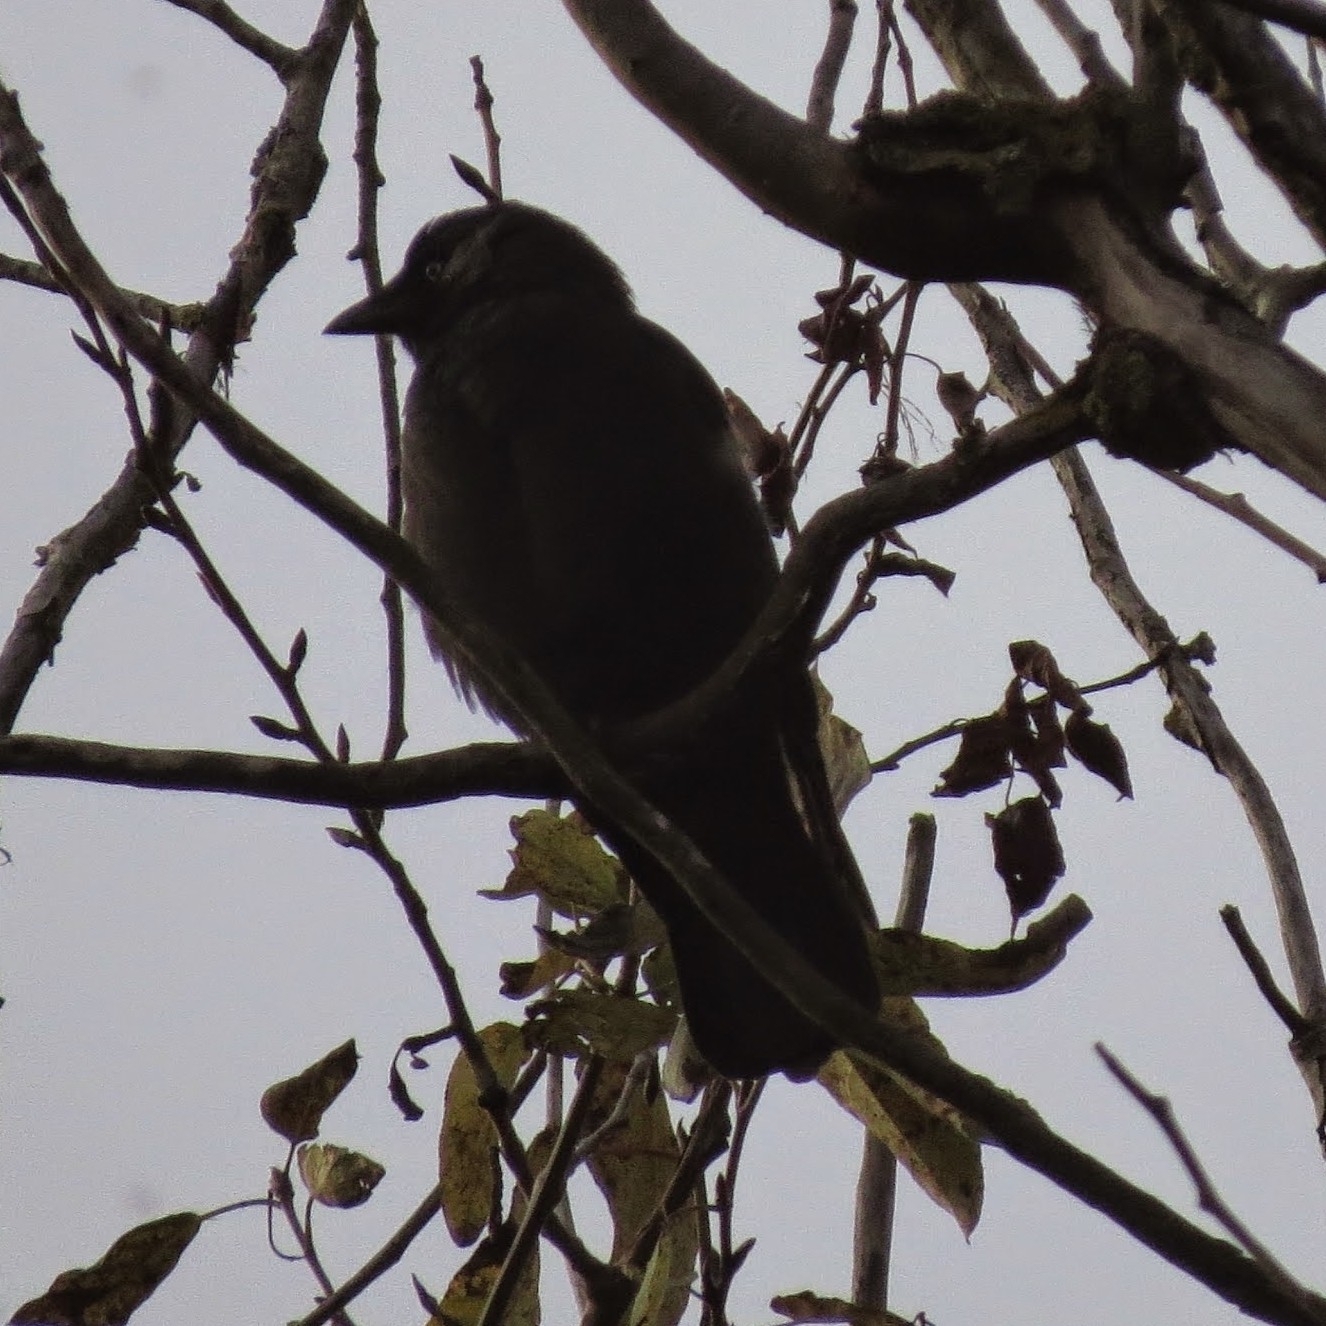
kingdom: Animalia
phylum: Chordata
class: Aves
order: Passeriformes
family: Corvidae
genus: Coloeus
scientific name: Coloeus monedula
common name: Western jackdaw
